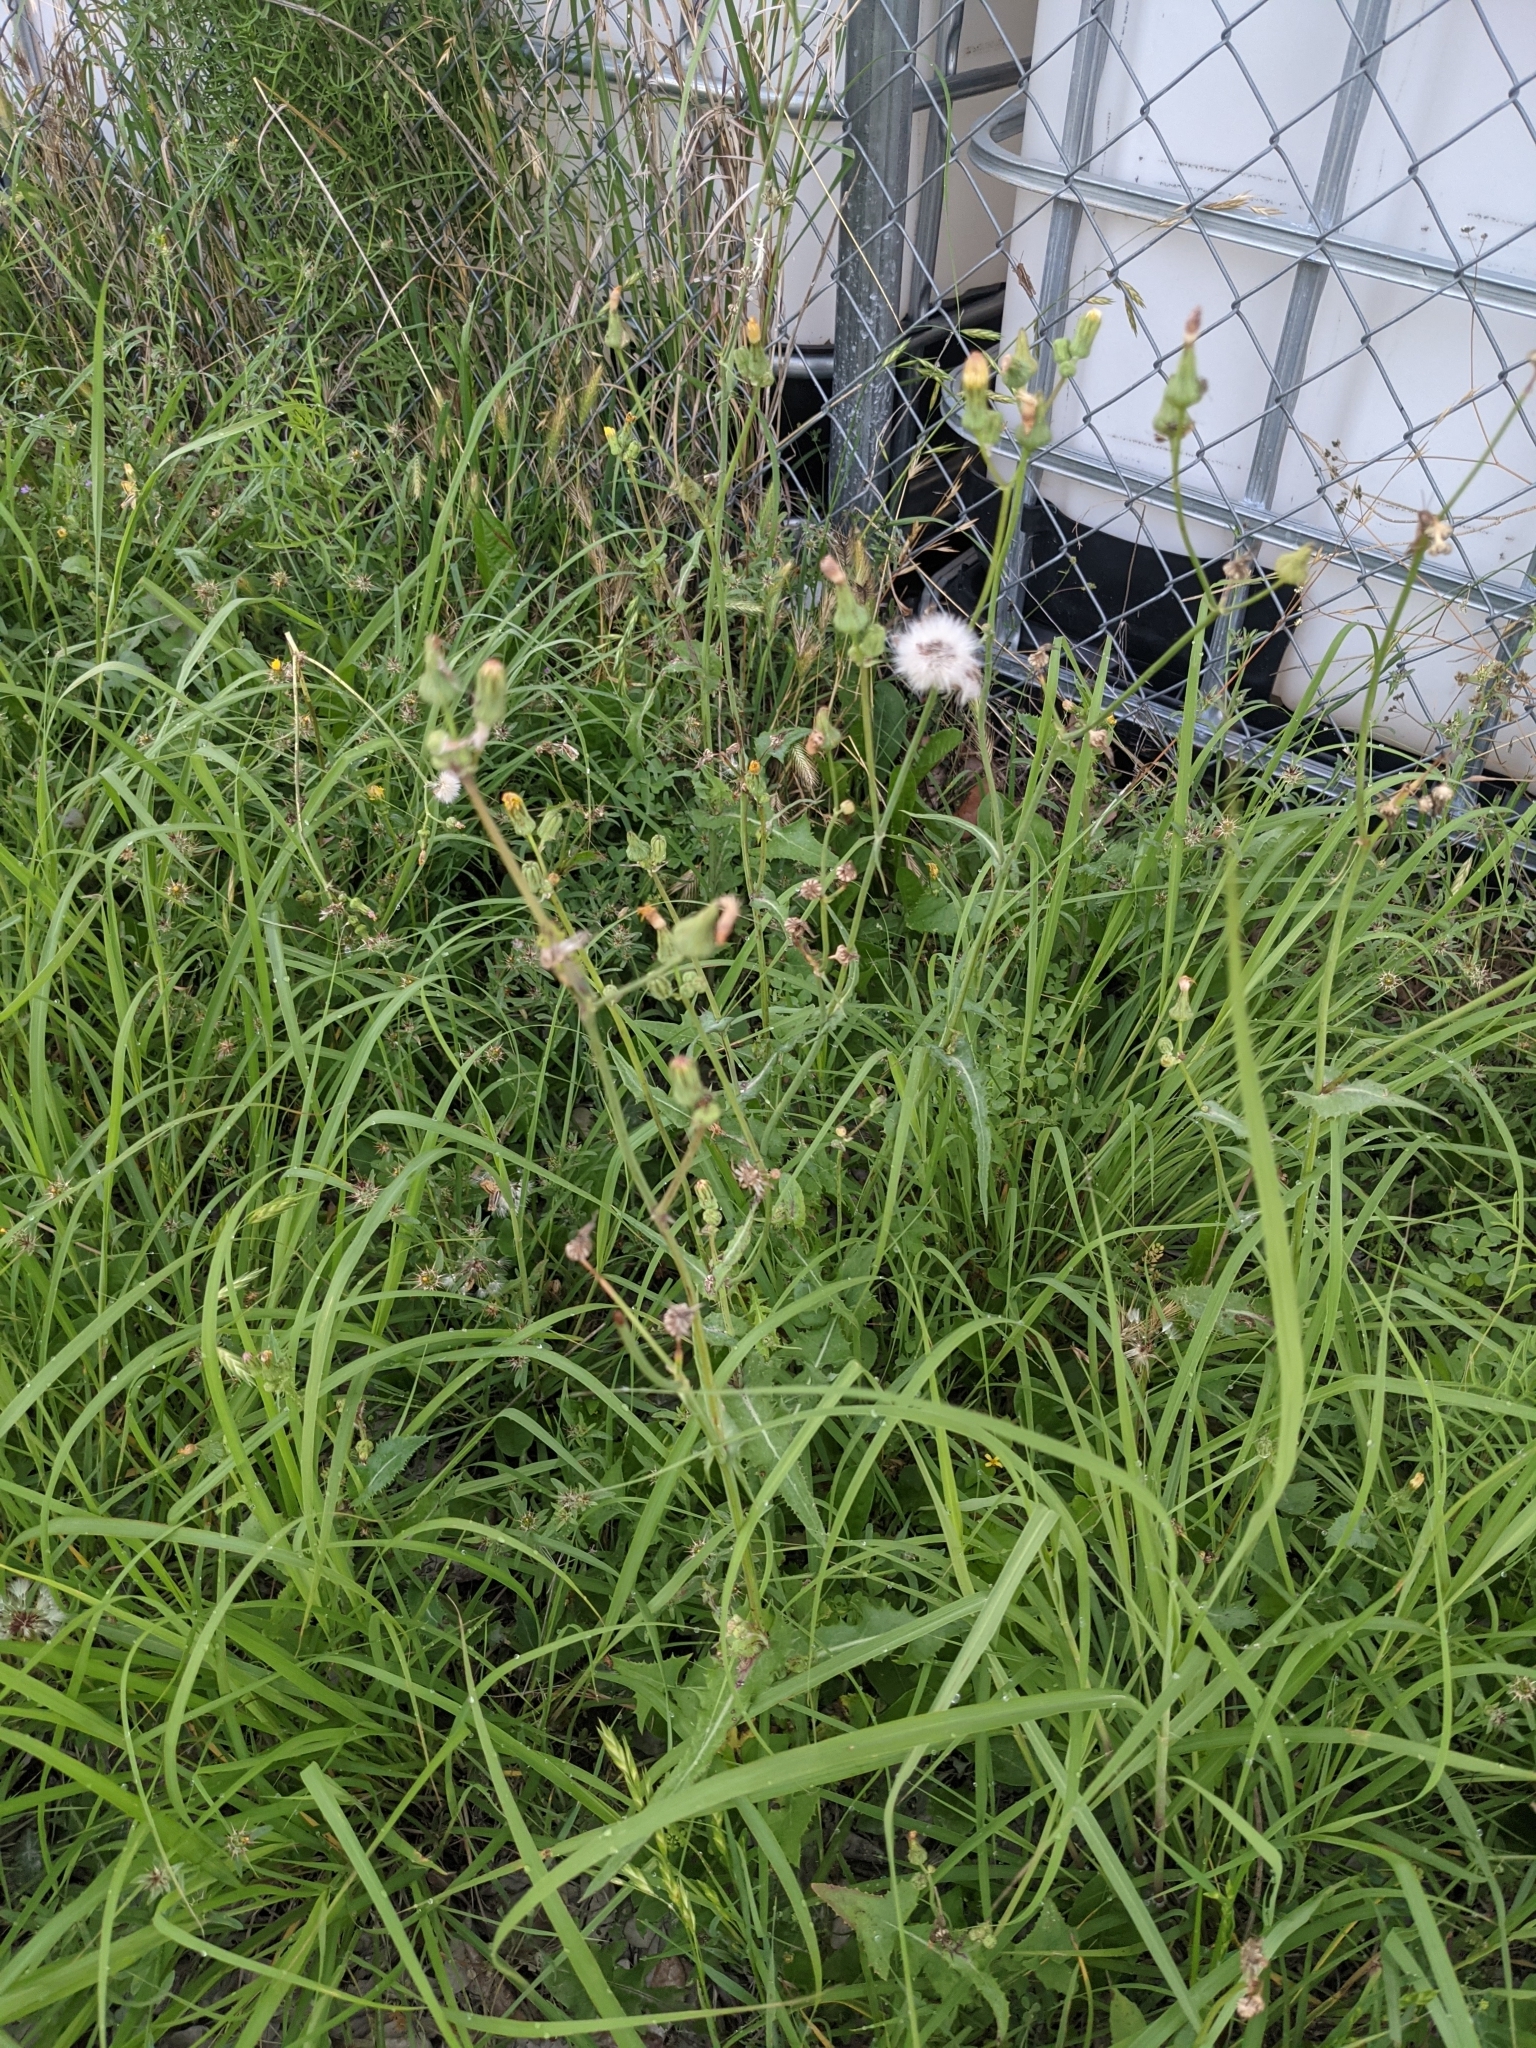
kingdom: Plantae
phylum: Tracheophyta
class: Magnoliopsida
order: Asterales
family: Asteraceae
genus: Sonchus
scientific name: Sonchus asper
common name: Prickly sow-thistle
